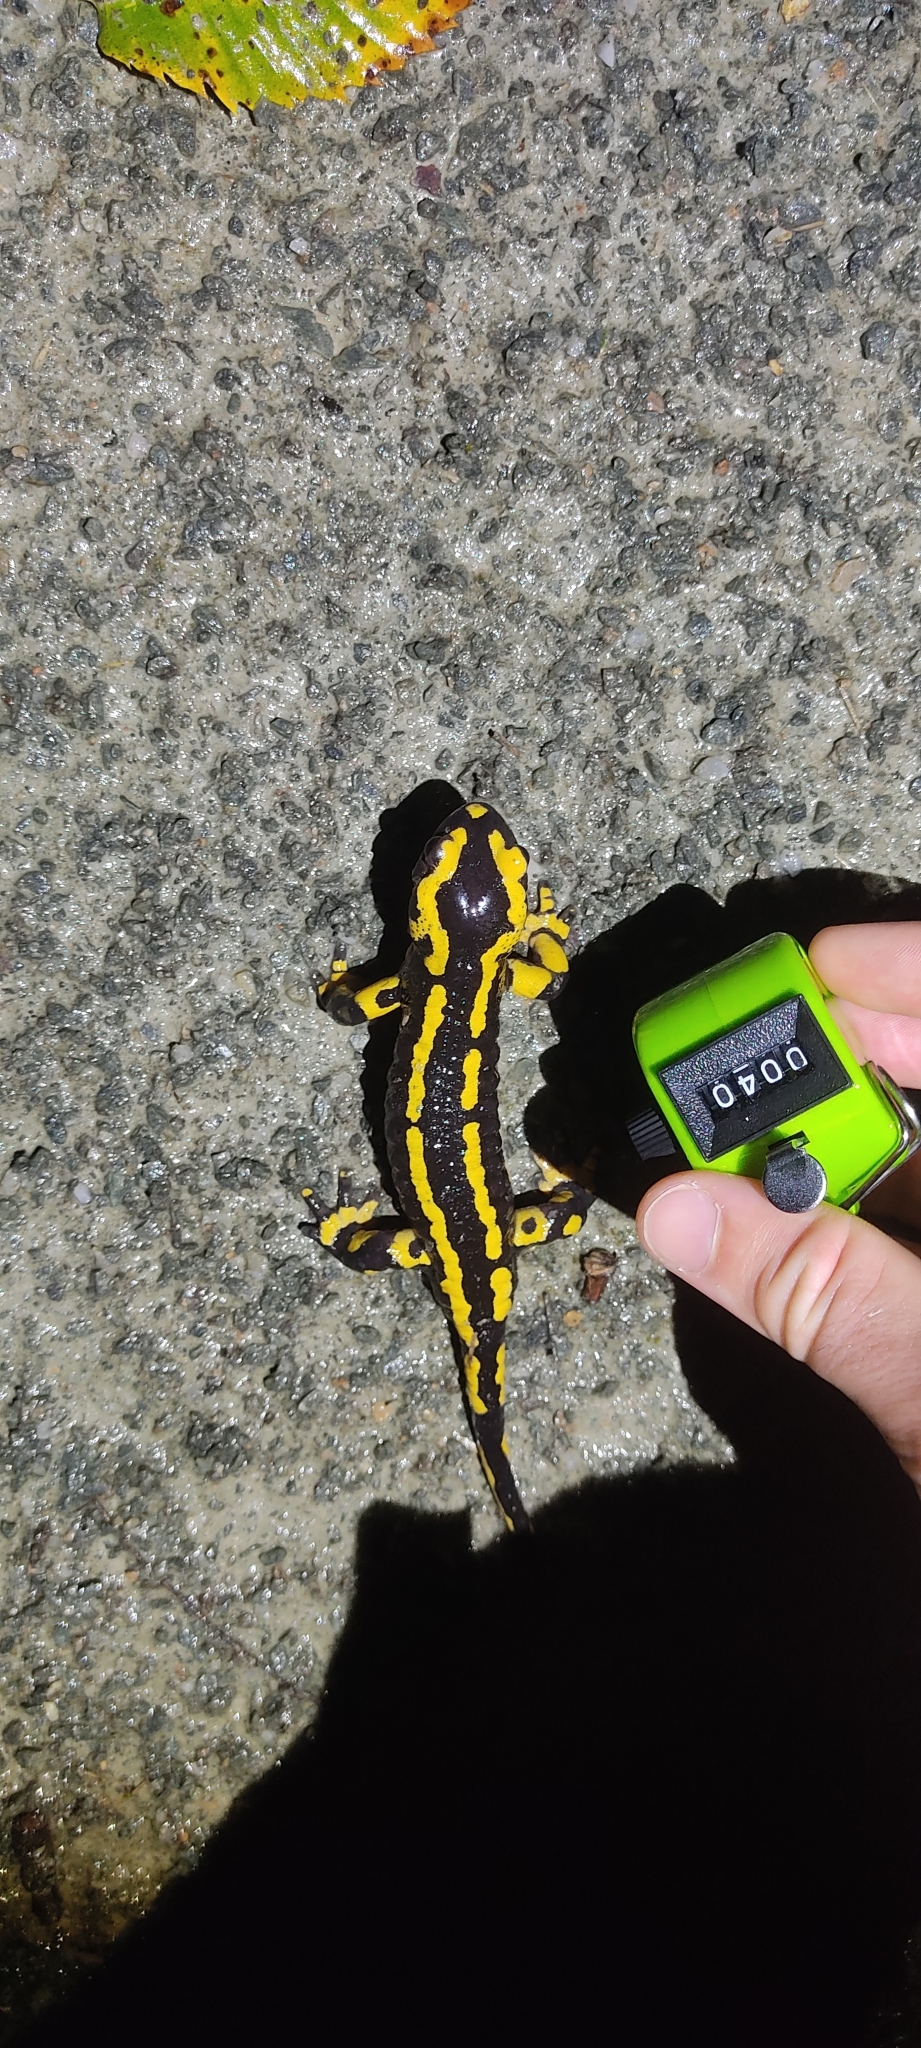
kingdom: Animalia
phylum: Chordata
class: Amphibia
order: Caudata
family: Salamandridae
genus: Salamandra
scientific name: Salamandra salamandra
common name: Fire salamander
